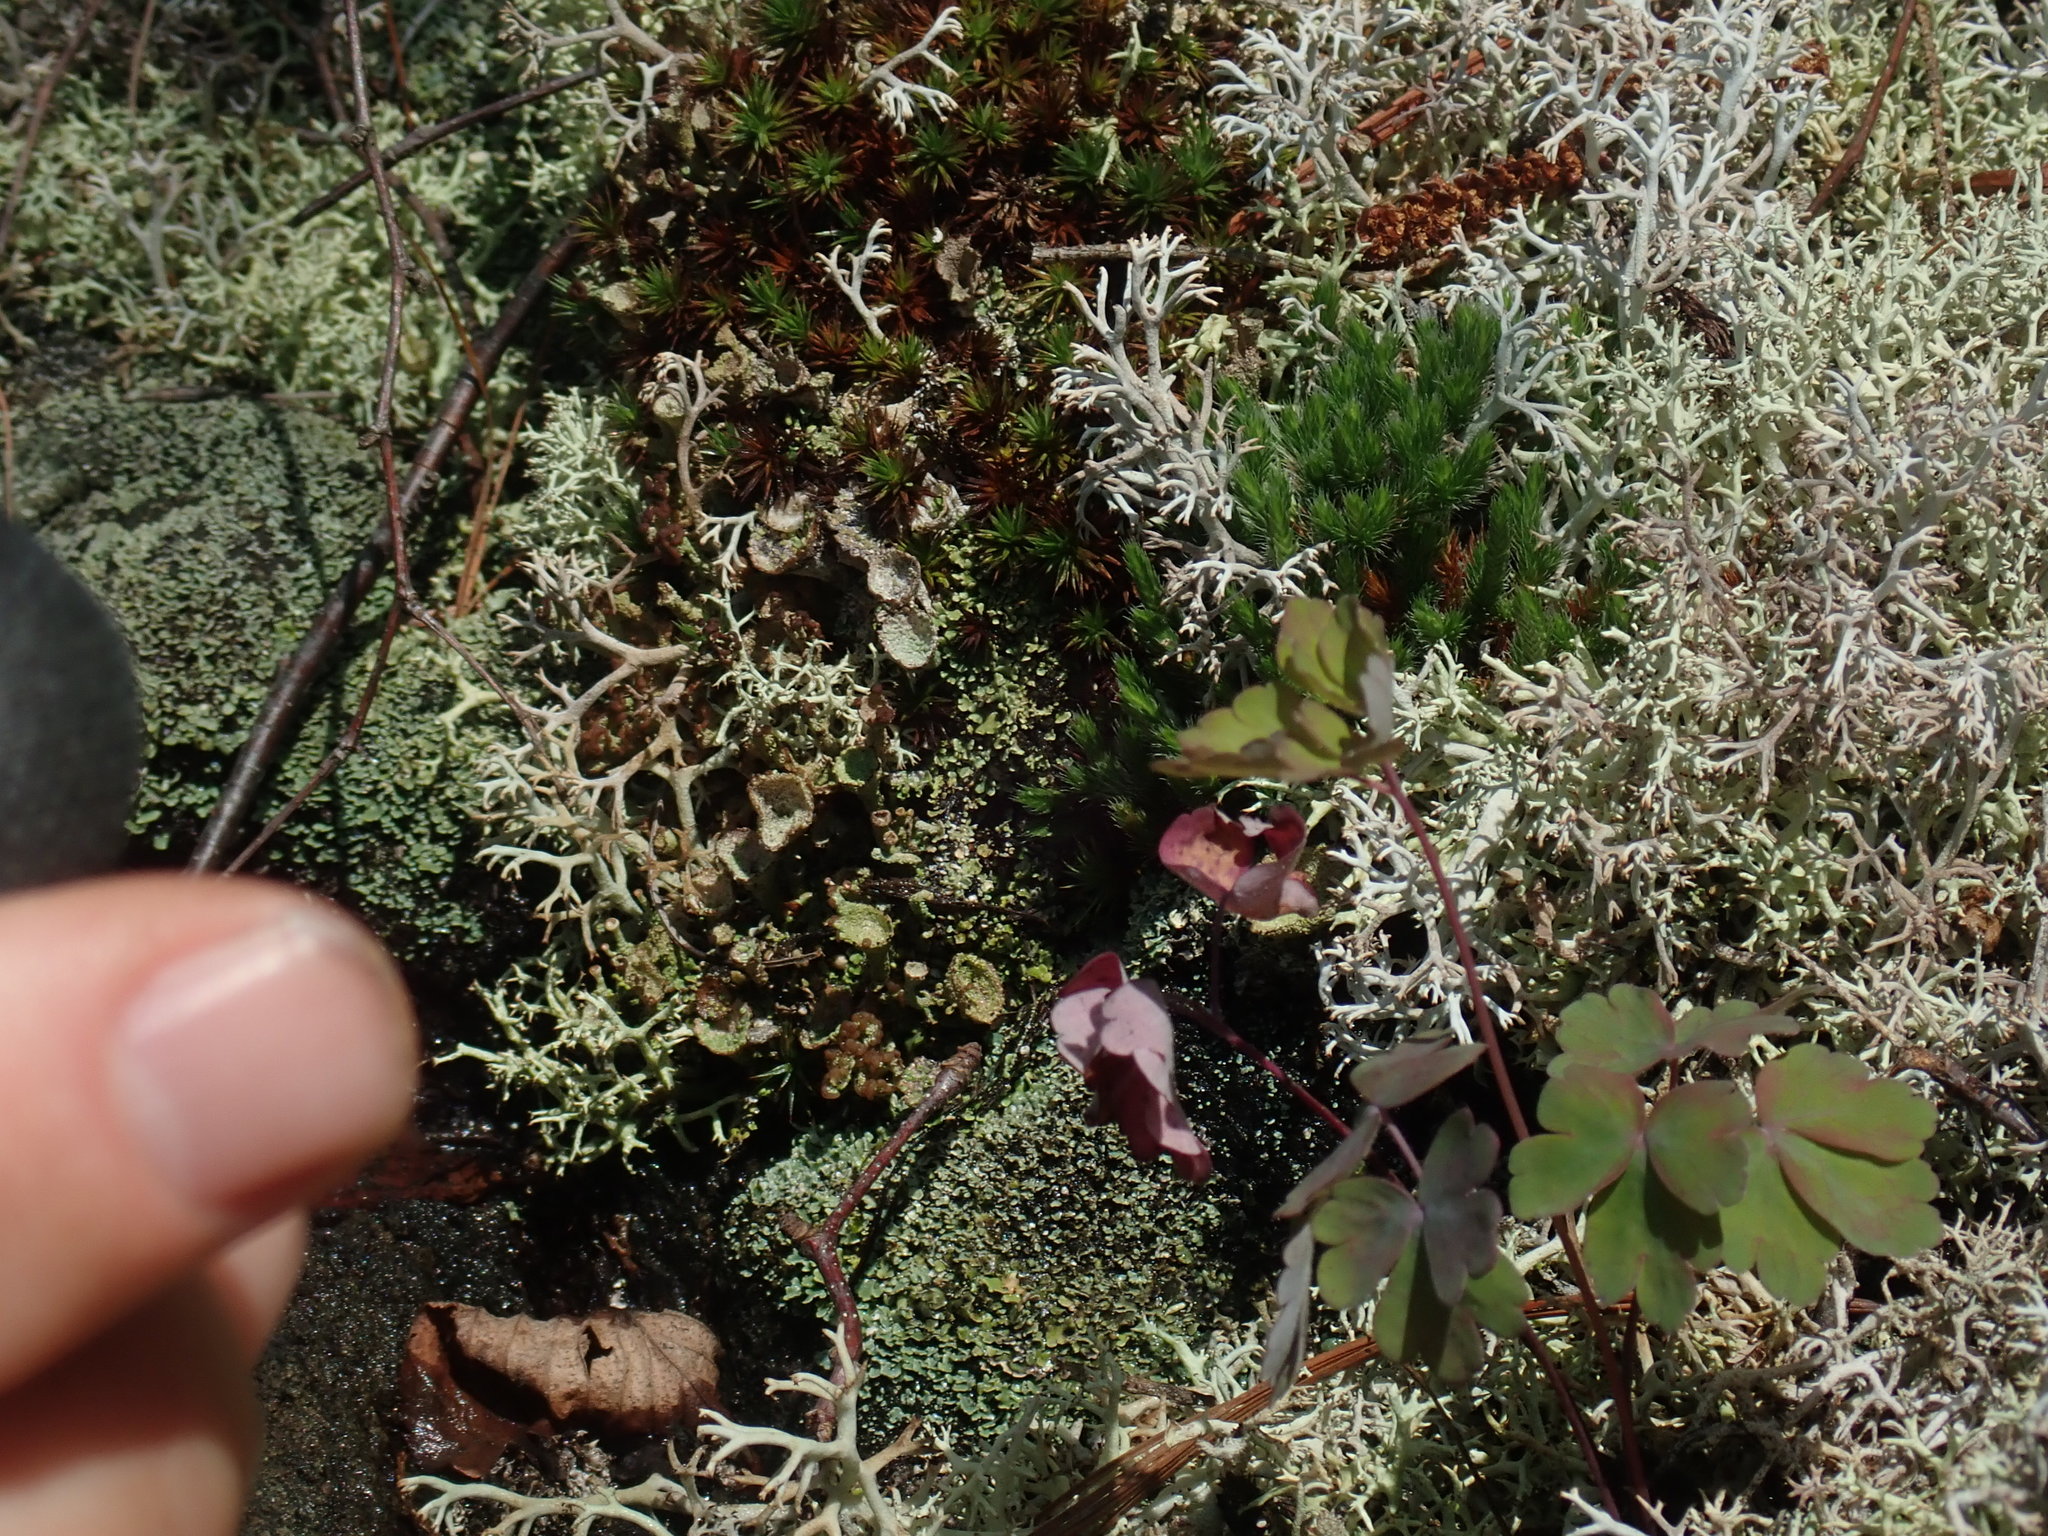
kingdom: Plantae
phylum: Tracheophyta
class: Lycopodiopsida
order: Selaginellales
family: Selaginellaceae
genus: Selaginella
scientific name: Selaginella rupestris
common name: Dwarf spikemoss
